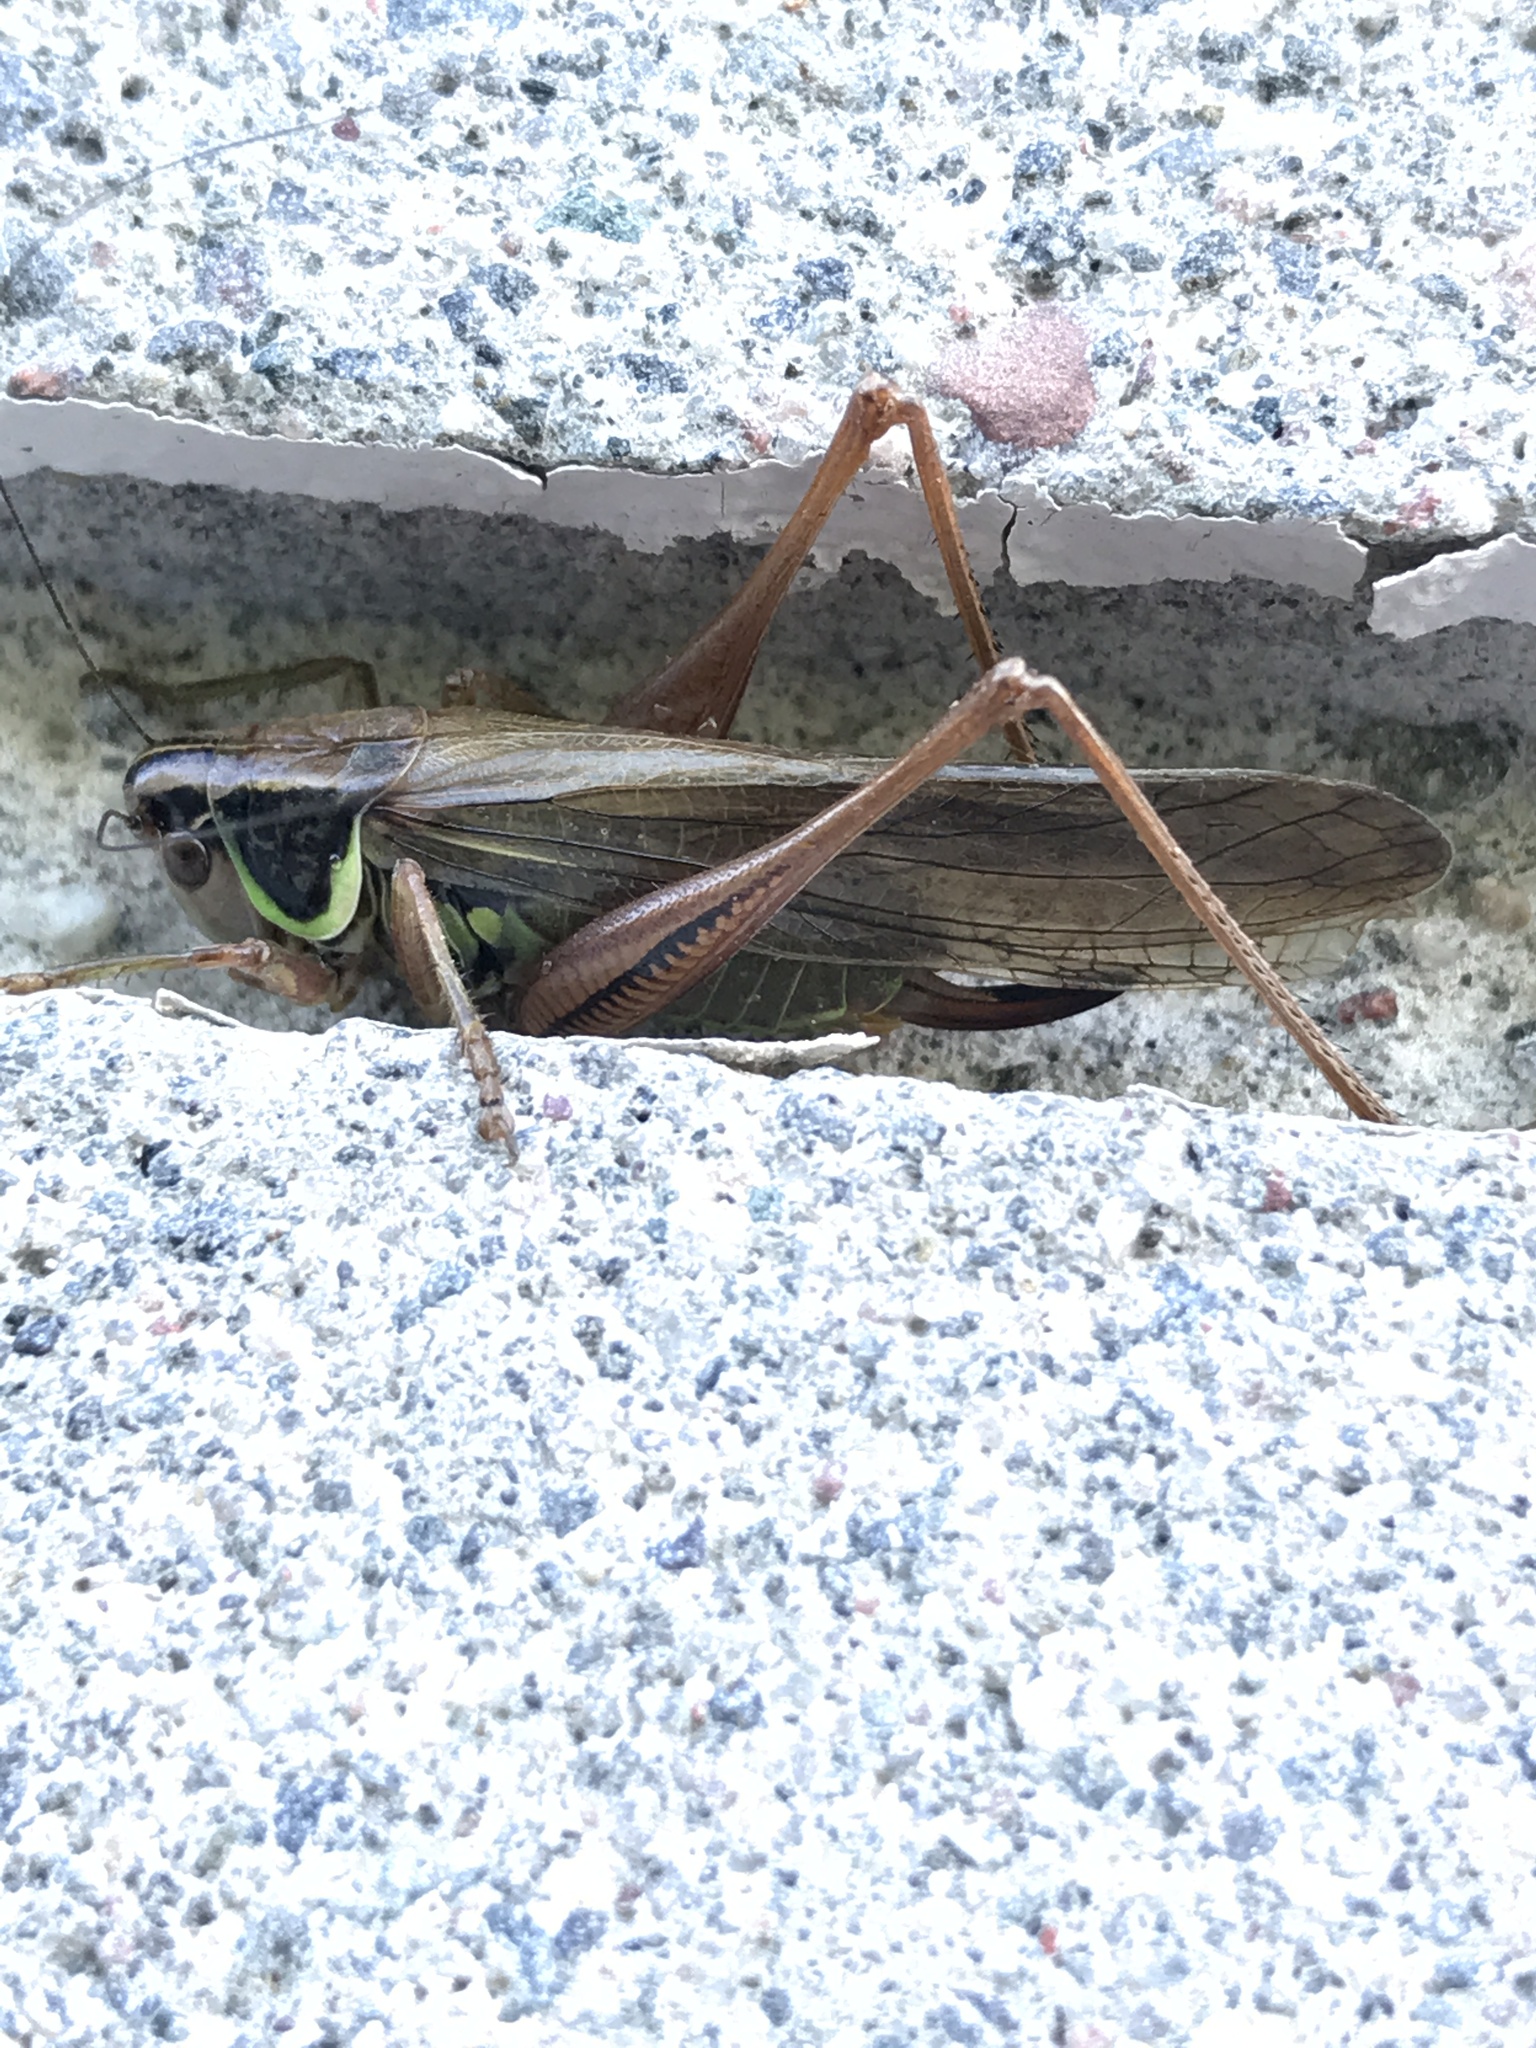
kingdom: Animalia
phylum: Arthropoda
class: Insecta
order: Orthoptera
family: Tettigoniidae
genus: Roeseliana
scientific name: Roeseliana roeselii
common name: Roesel's bush cricket
